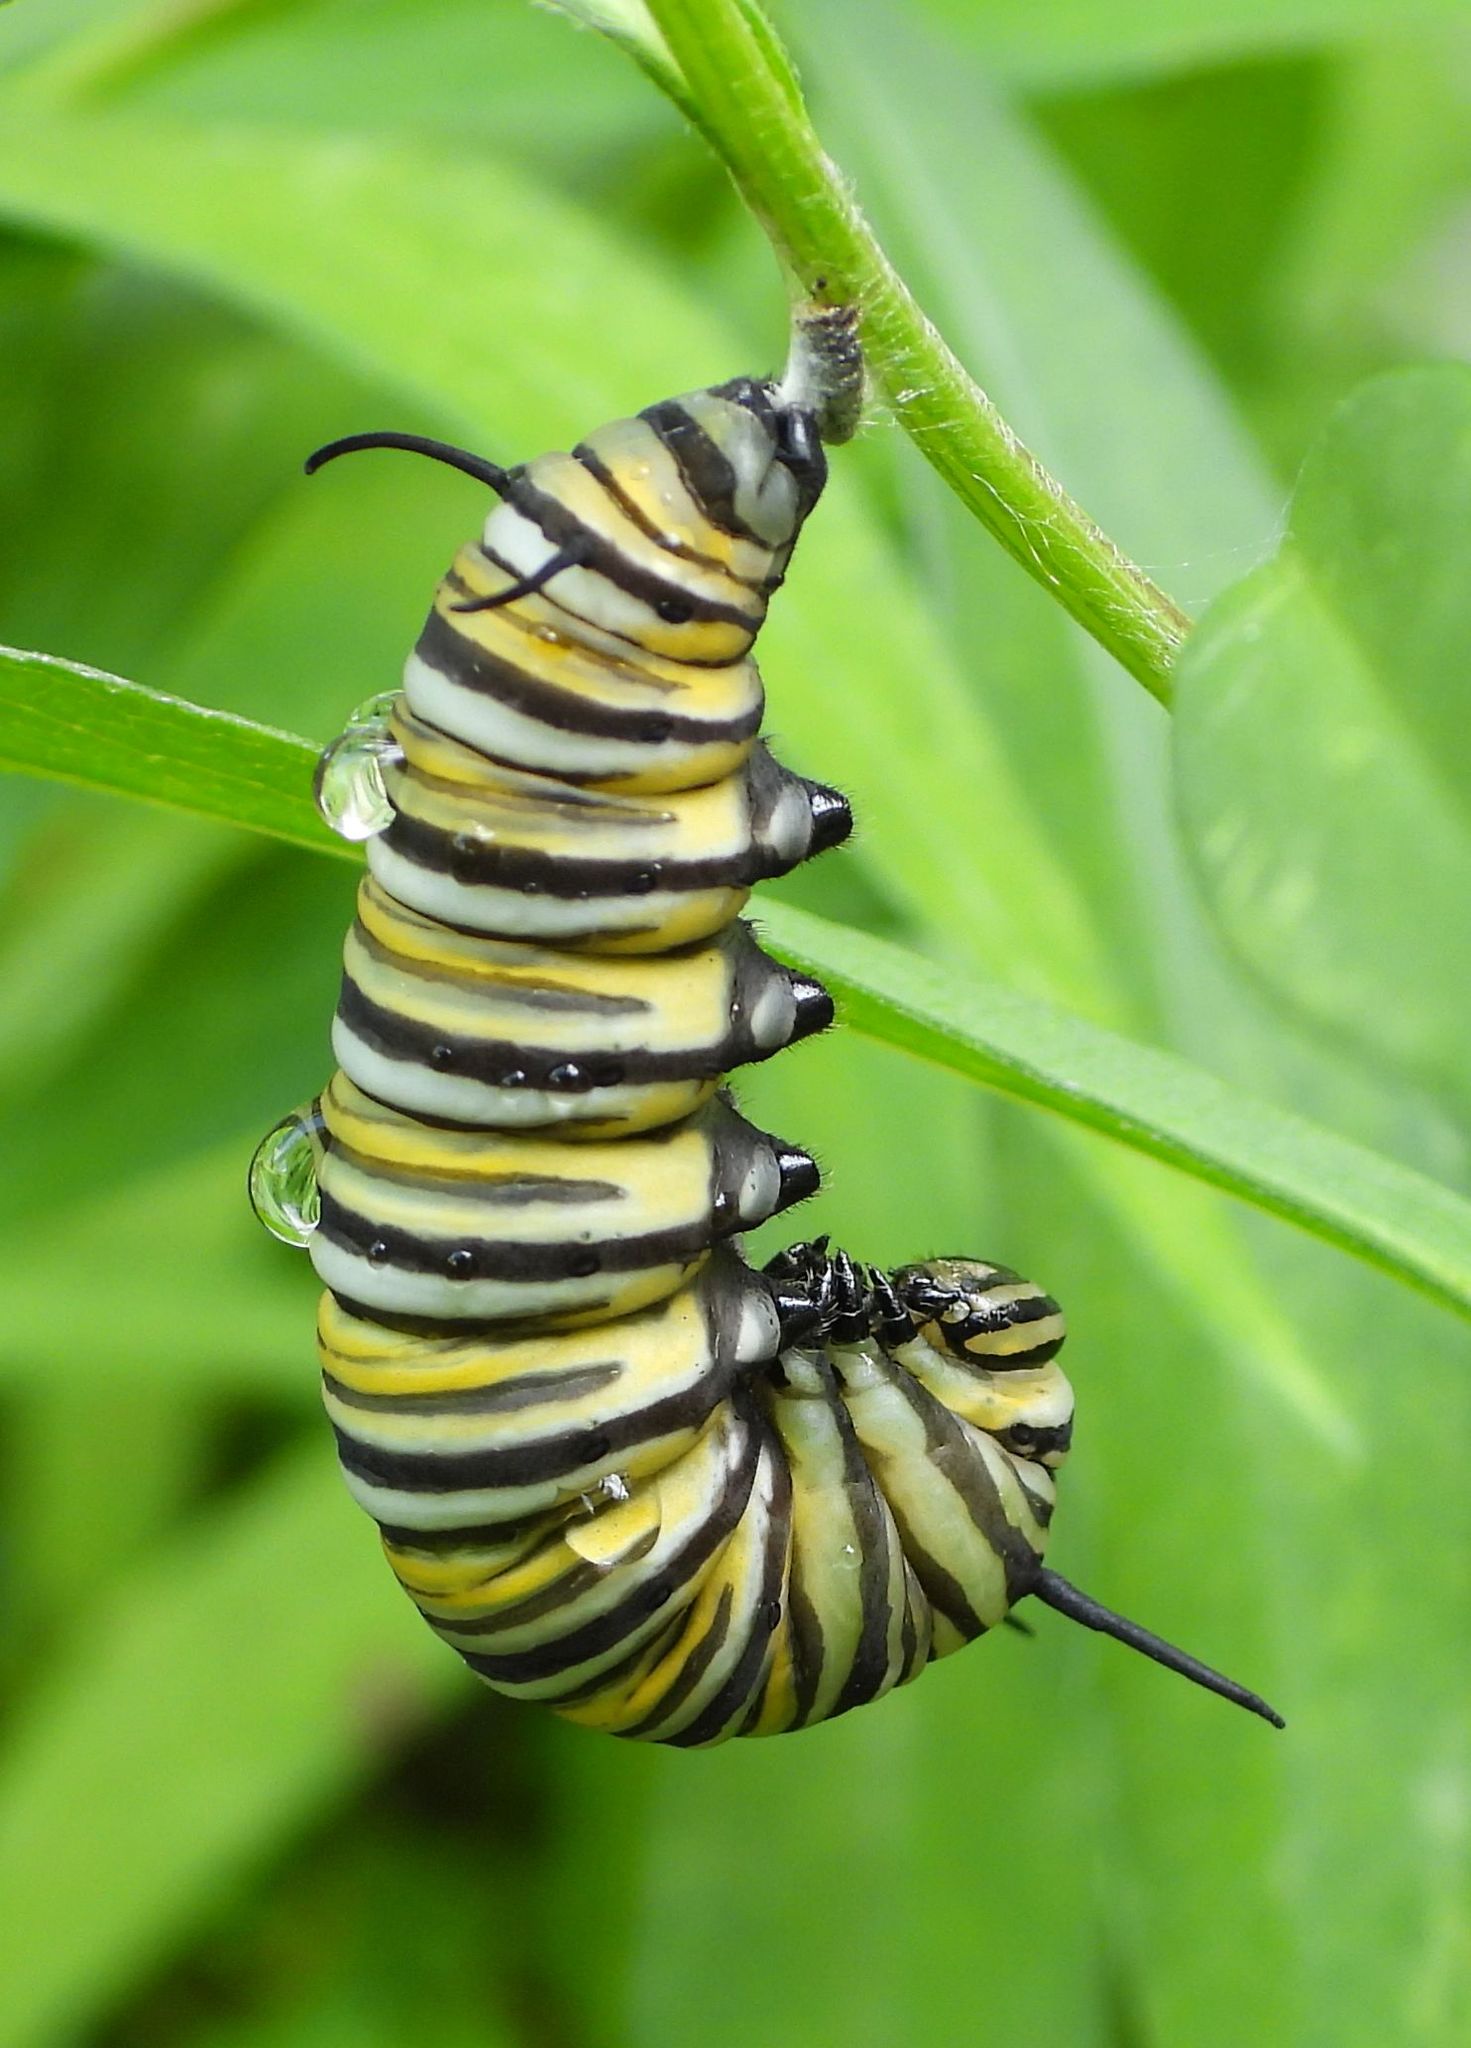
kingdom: Animalia
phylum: Arthropoda
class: Insecta
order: Lepidoptera
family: Nymphalidae
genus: Danaus
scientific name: Danaus plexippus
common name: Monarch
